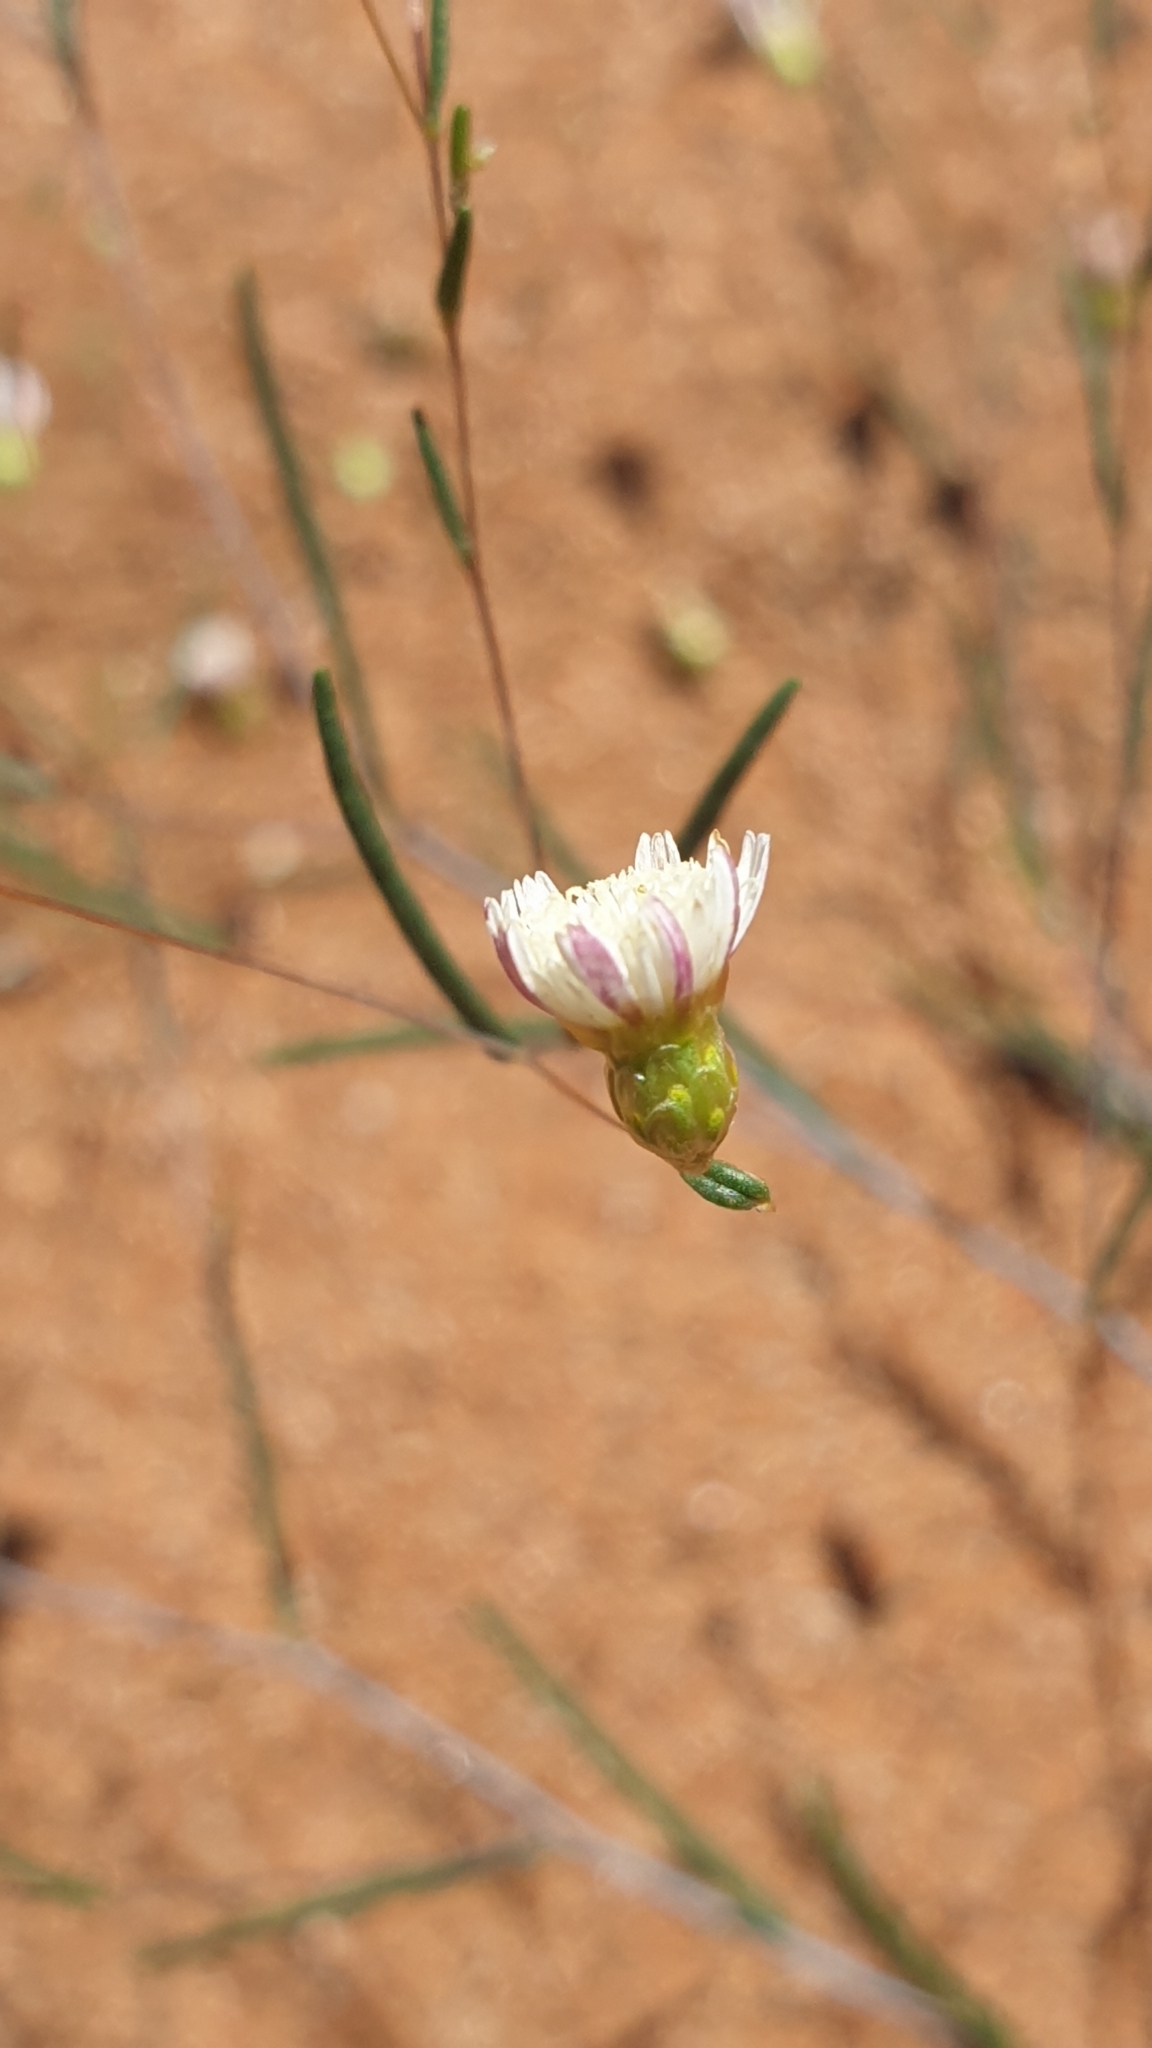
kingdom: Plantae
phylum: Tracheophyta
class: Magnoliopsida
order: Asterales
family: Asteraceae
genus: Siemssenia
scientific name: Siemssenia capillaris
